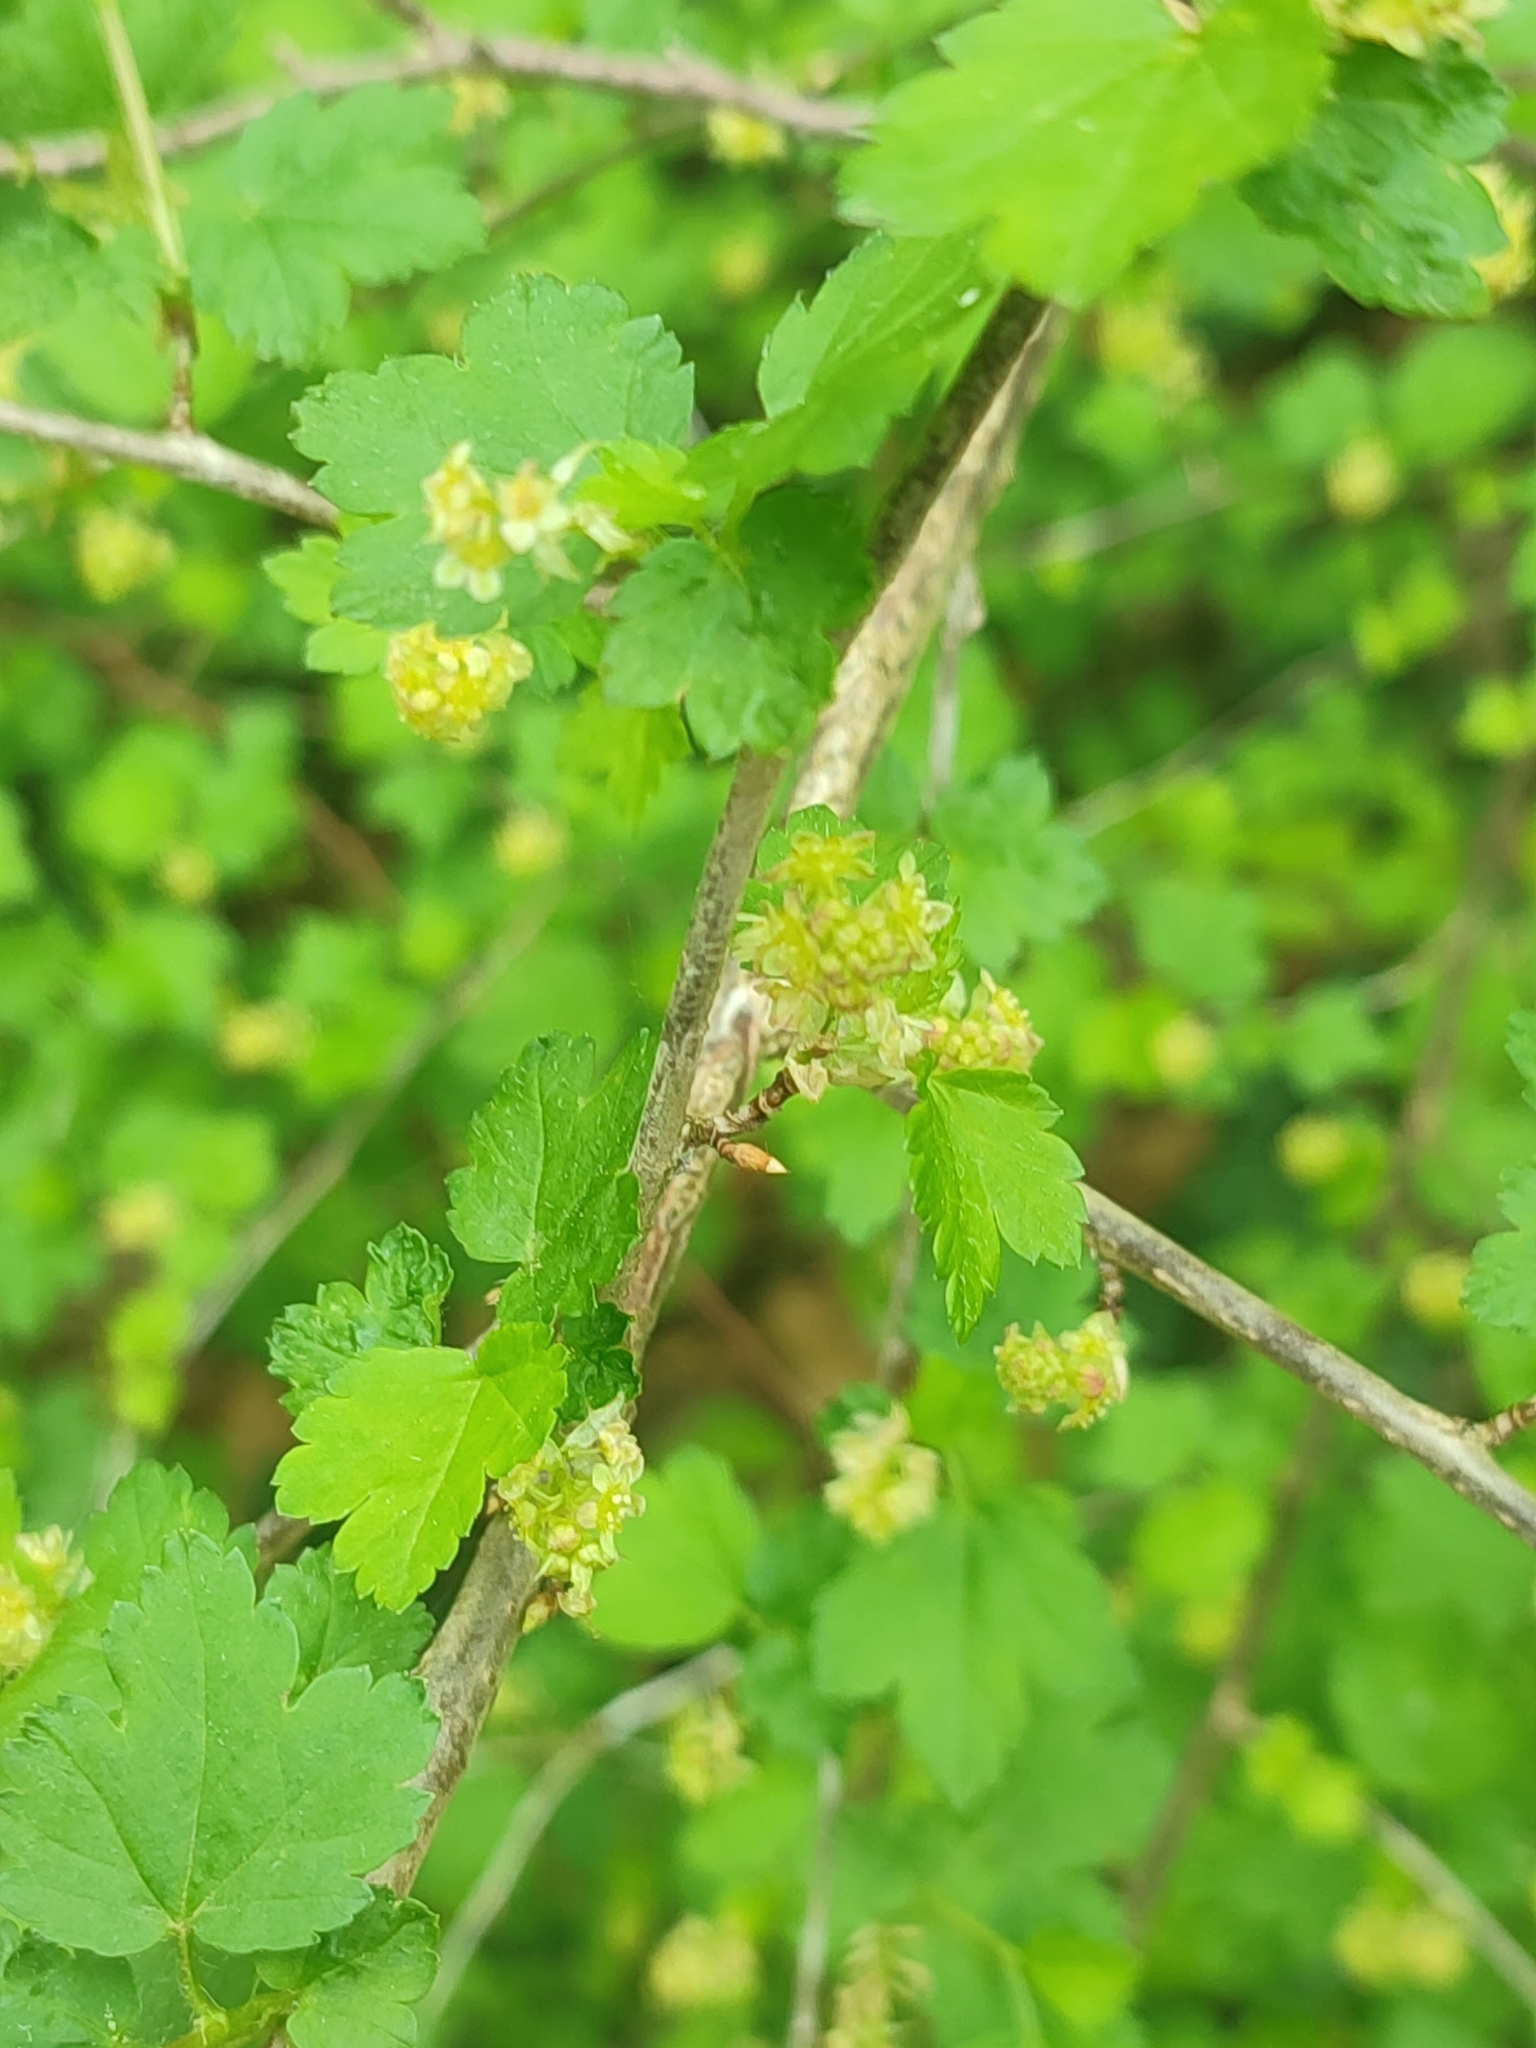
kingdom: Plantae
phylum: Tracheophyta
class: Magnoliopsida
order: Saxifragales
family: Grossulariaceae
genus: Ribes
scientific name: Ribes alpinum
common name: Alpine currant
